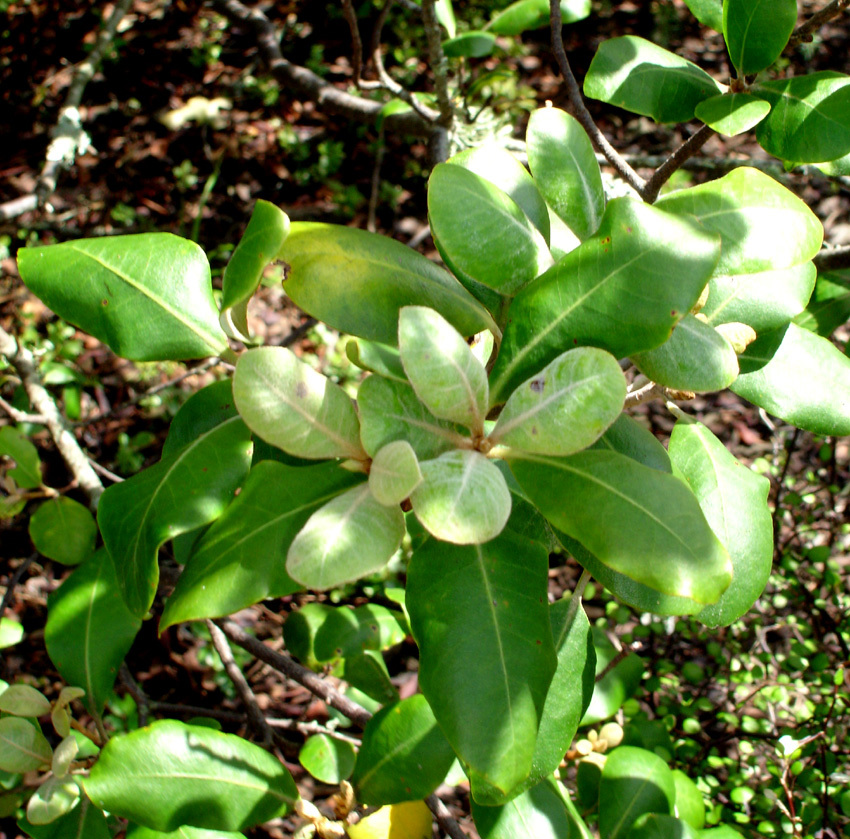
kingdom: Plantae
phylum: Tracheophyta
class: Magnoliopsida
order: Apiales
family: Pittosporaceae
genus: Pittosporum
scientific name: Pittosporum ellipticum
